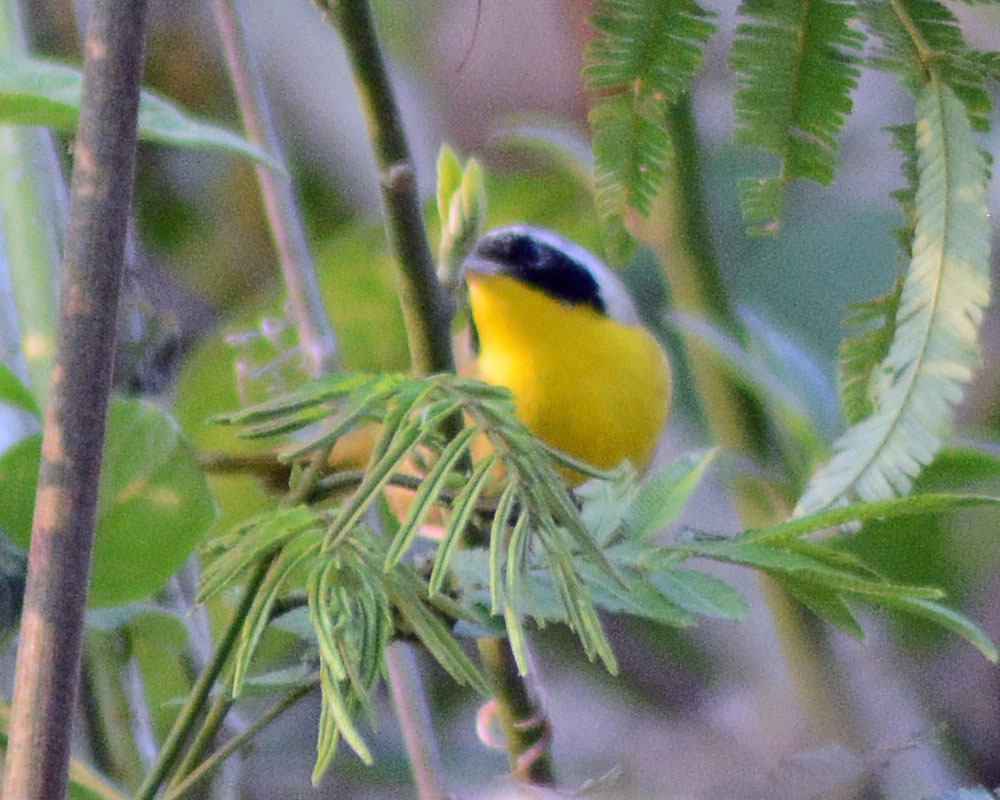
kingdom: Animalia
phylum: Chordata
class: Aves
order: Passeriformes
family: Parulidae
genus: Geothlypis
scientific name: Geothlypis trichas
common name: Common yellowthroat
